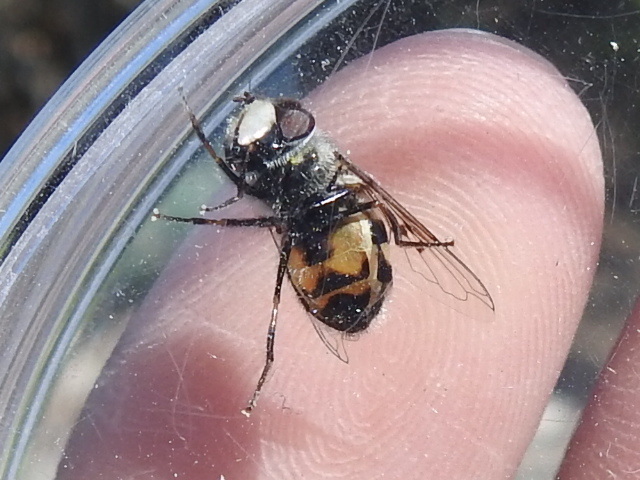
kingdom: Animalia
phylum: Arthropoda
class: Insecta
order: Diptera
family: Syrphidae
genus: Copestylum
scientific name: Copestylum avidum
